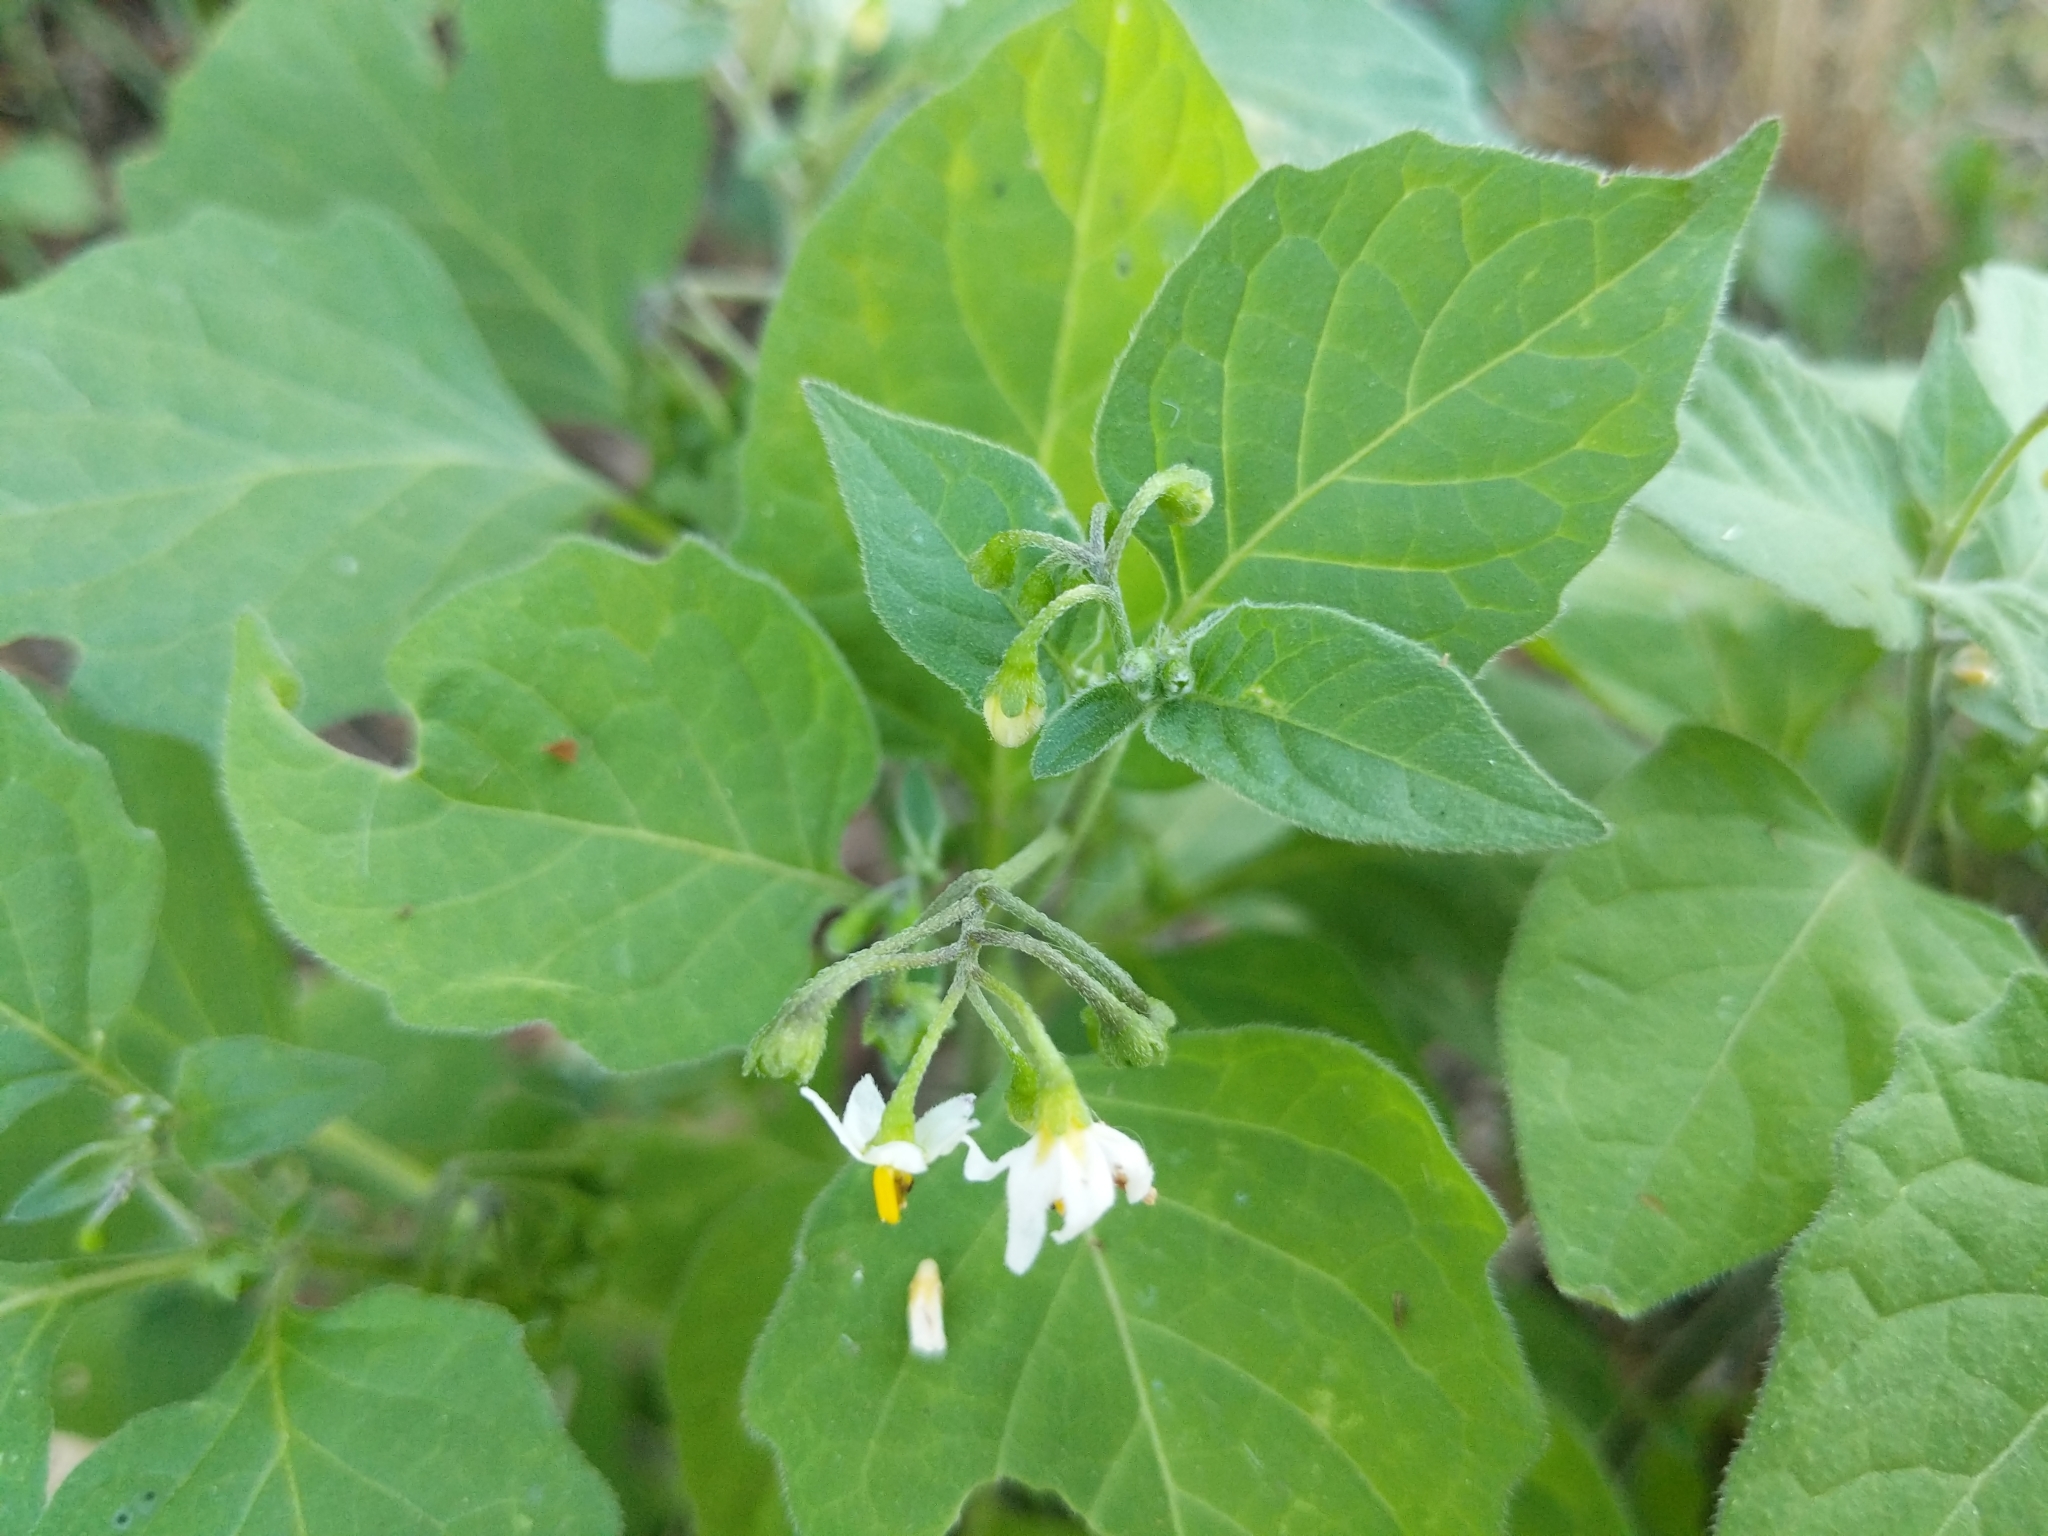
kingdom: Plantae
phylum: Tracheophyta
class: Magnoliopsida
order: Solanales
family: Solanaceae
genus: Solanum
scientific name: Solanum nigrum
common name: Black nightshade
